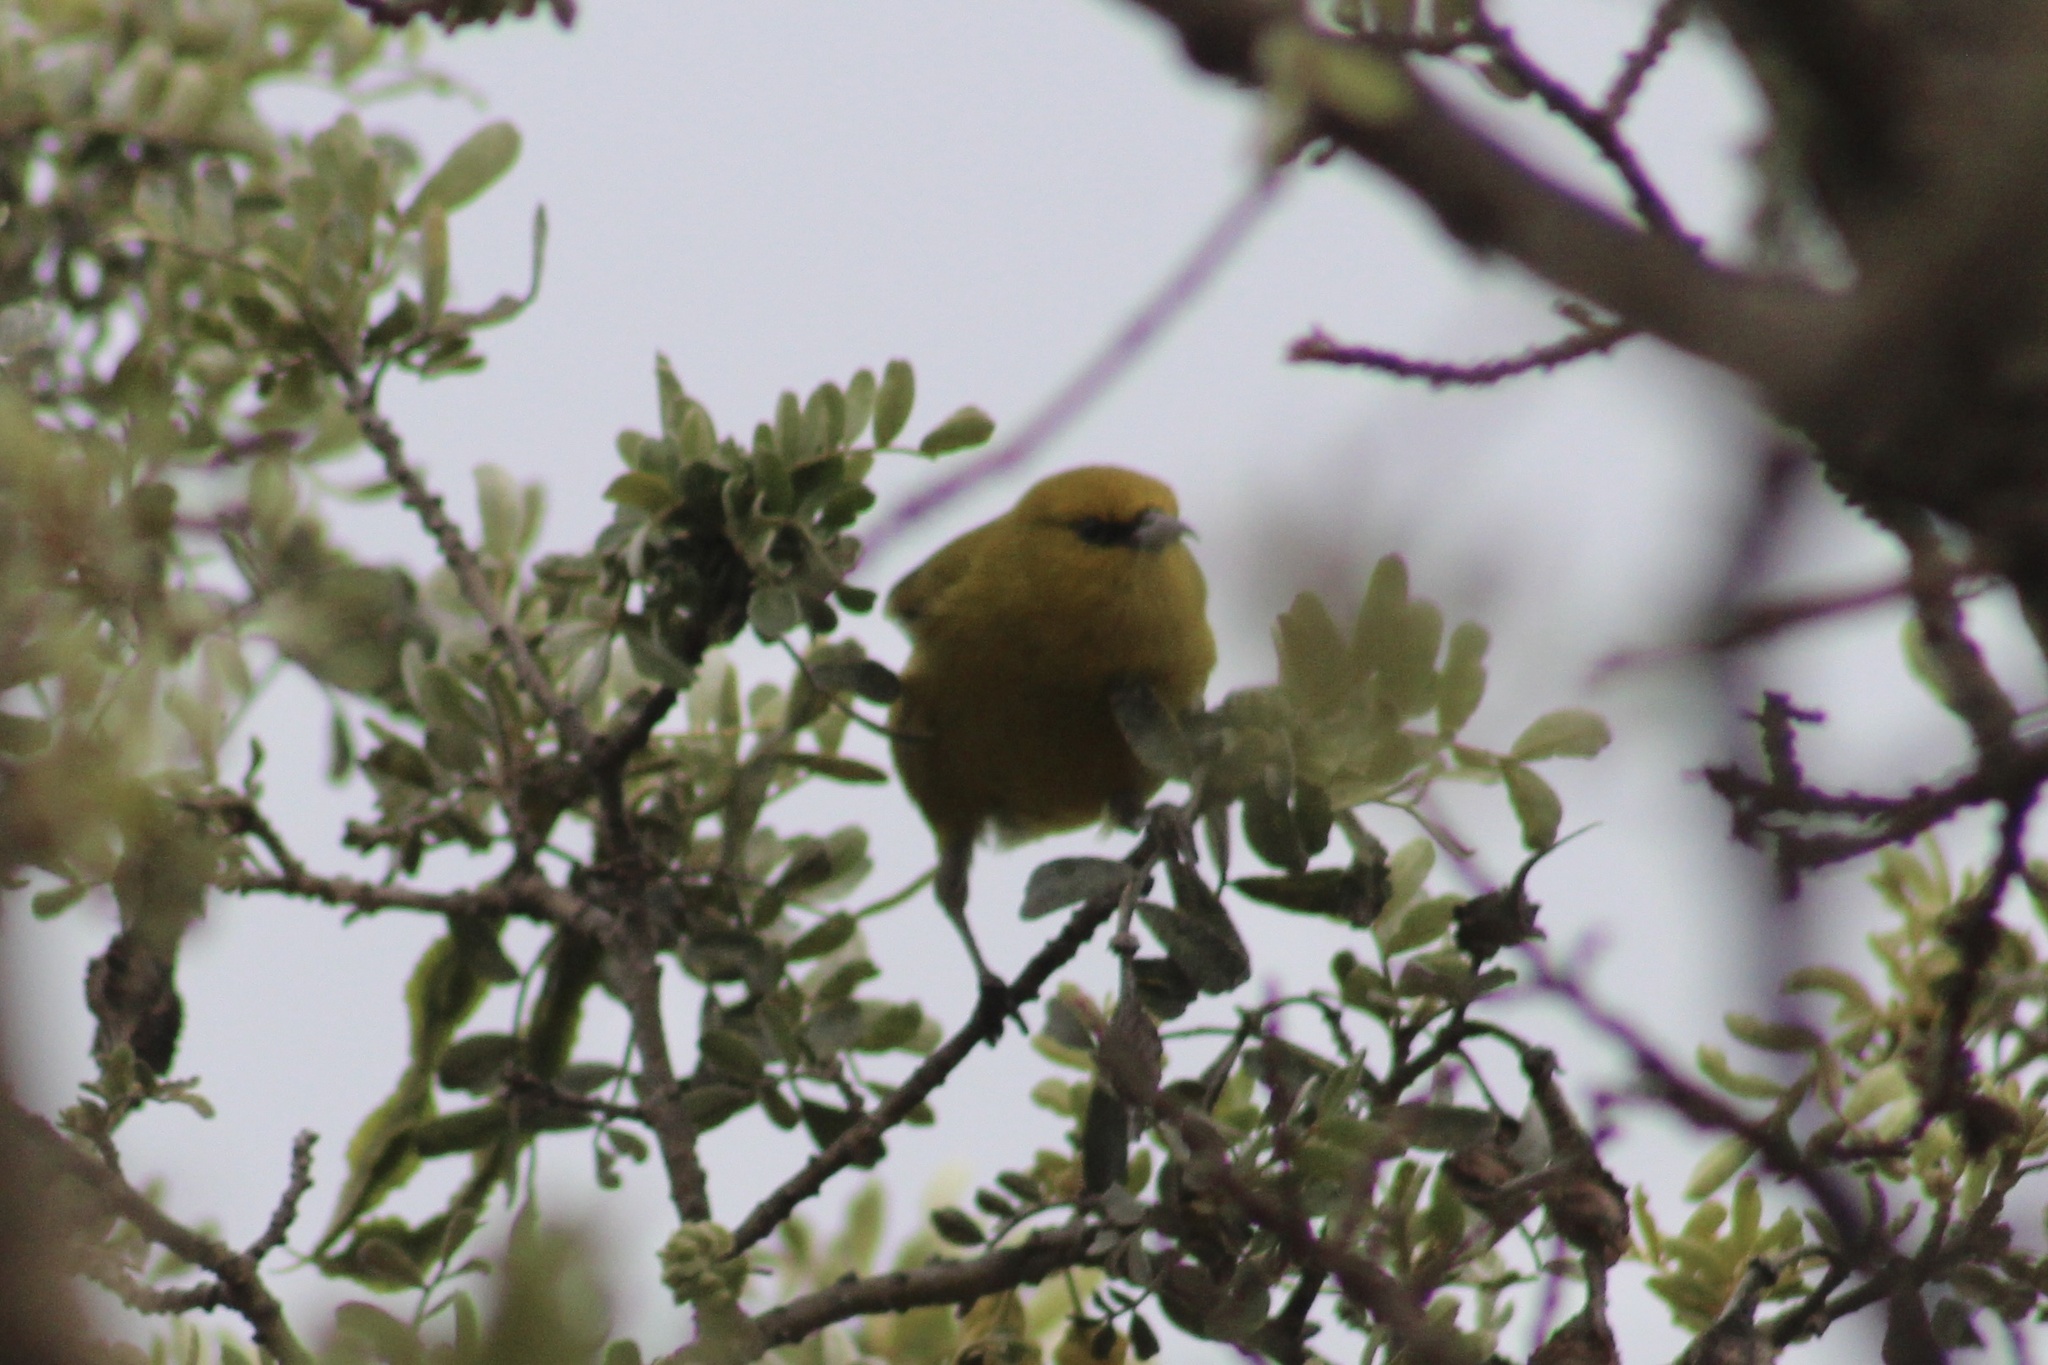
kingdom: Animalia
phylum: Chordata
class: Aves
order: Passeriformes
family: Fringillidae
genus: Chlorodrepanis
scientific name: Chlorodrepanis virens
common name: Hawaii amakihi
